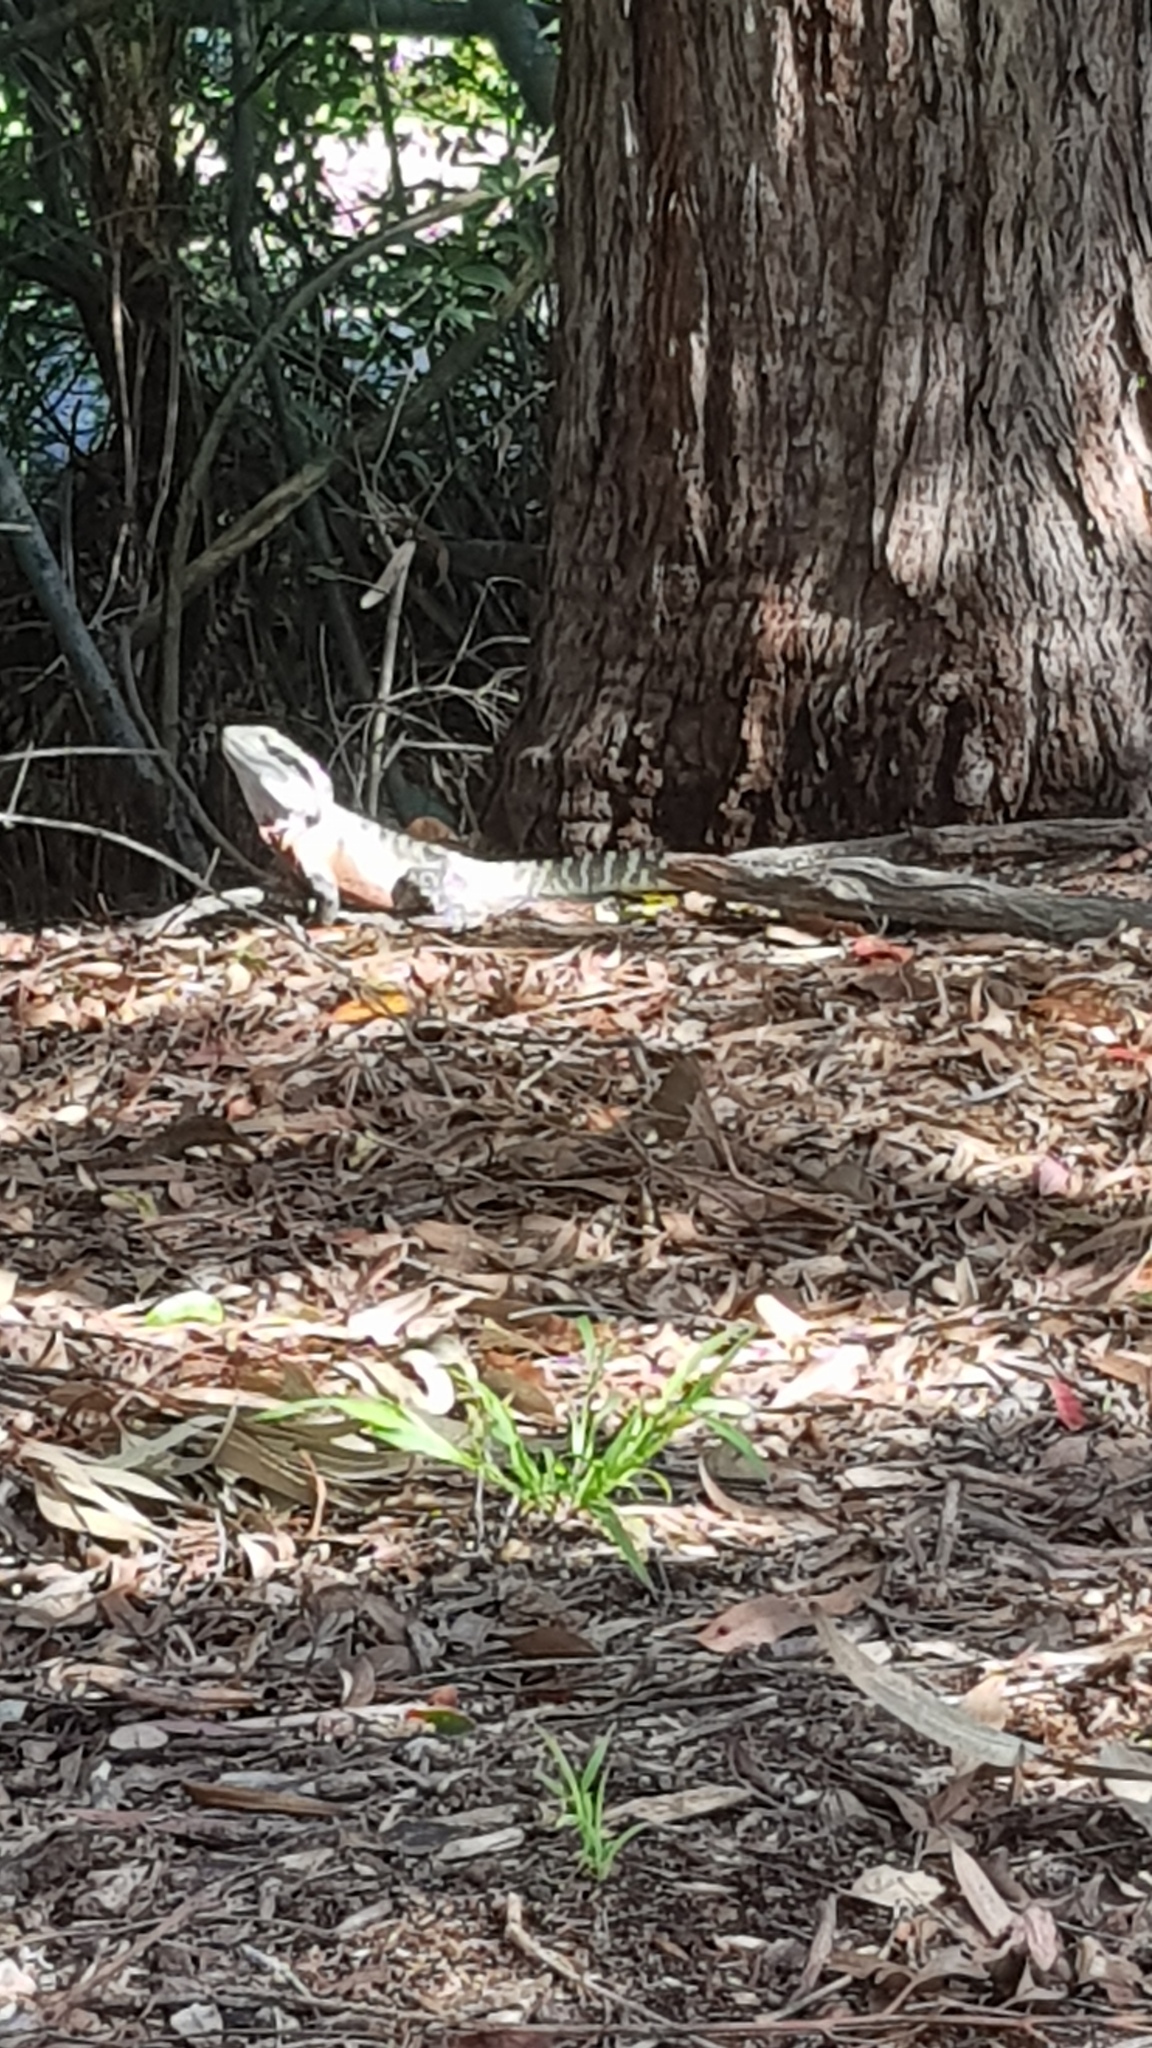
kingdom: Animalia
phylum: Chordata
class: Squamata
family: Agamidae
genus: Intellagama
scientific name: Intellagama lesueurii
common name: Eastern water dragon
